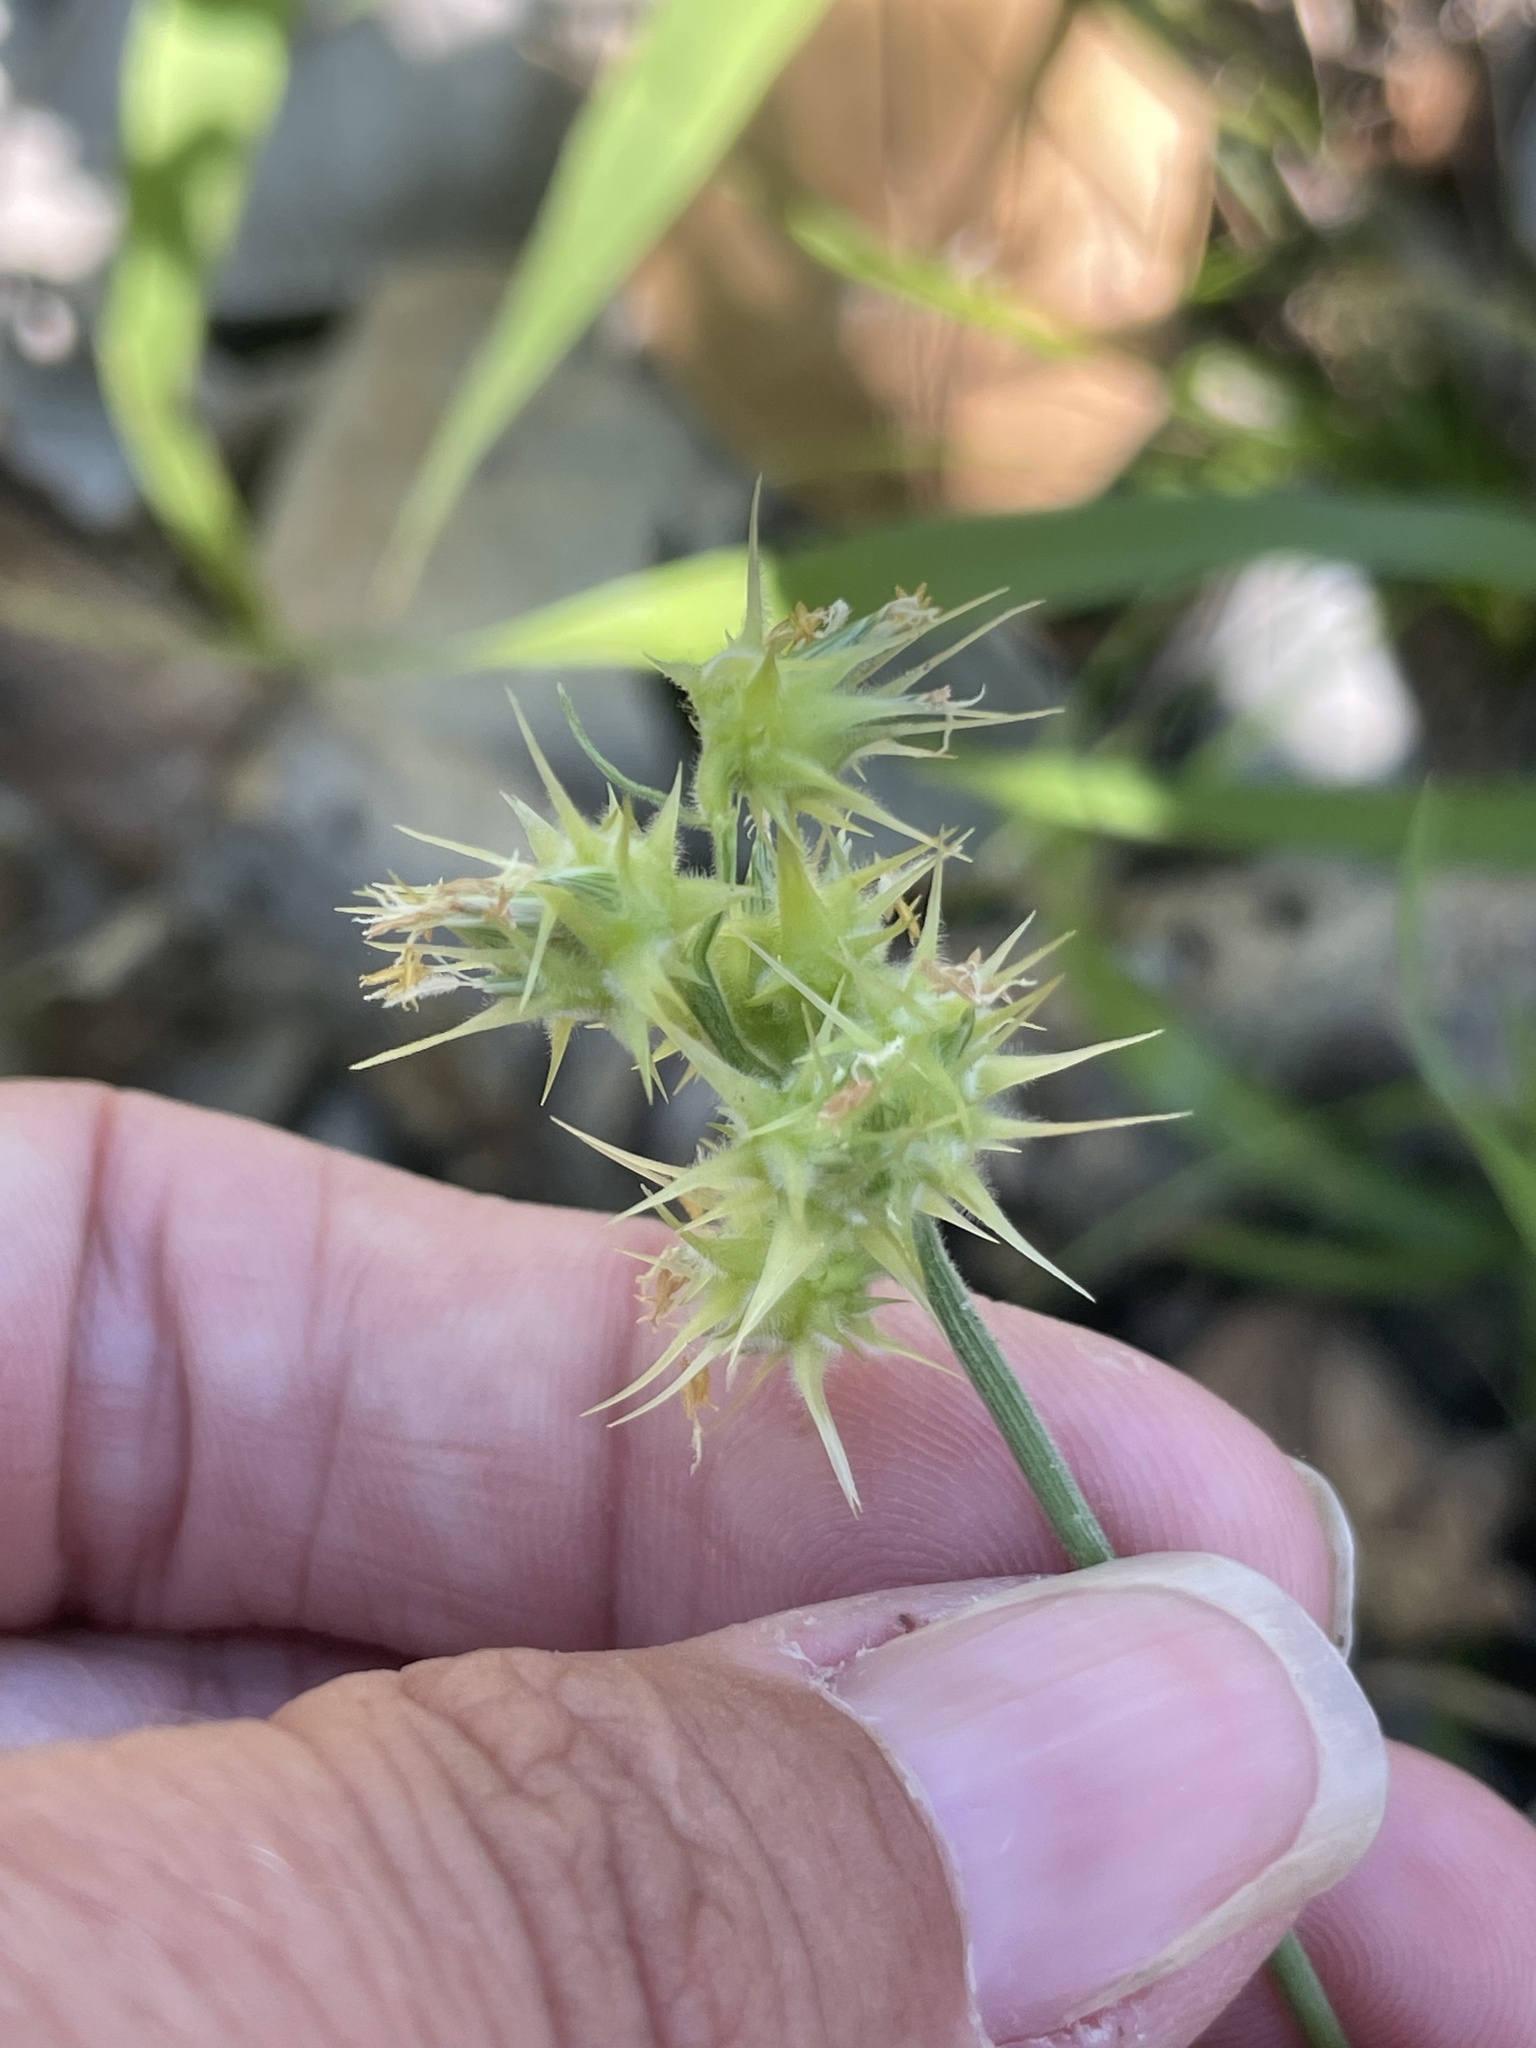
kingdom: Plantae
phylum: Tracheophyta
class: Liliopsida
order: Poales
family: Poaceae
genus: Cenchrus
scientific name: Cenchrus palmeri
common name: Giant sandbur
